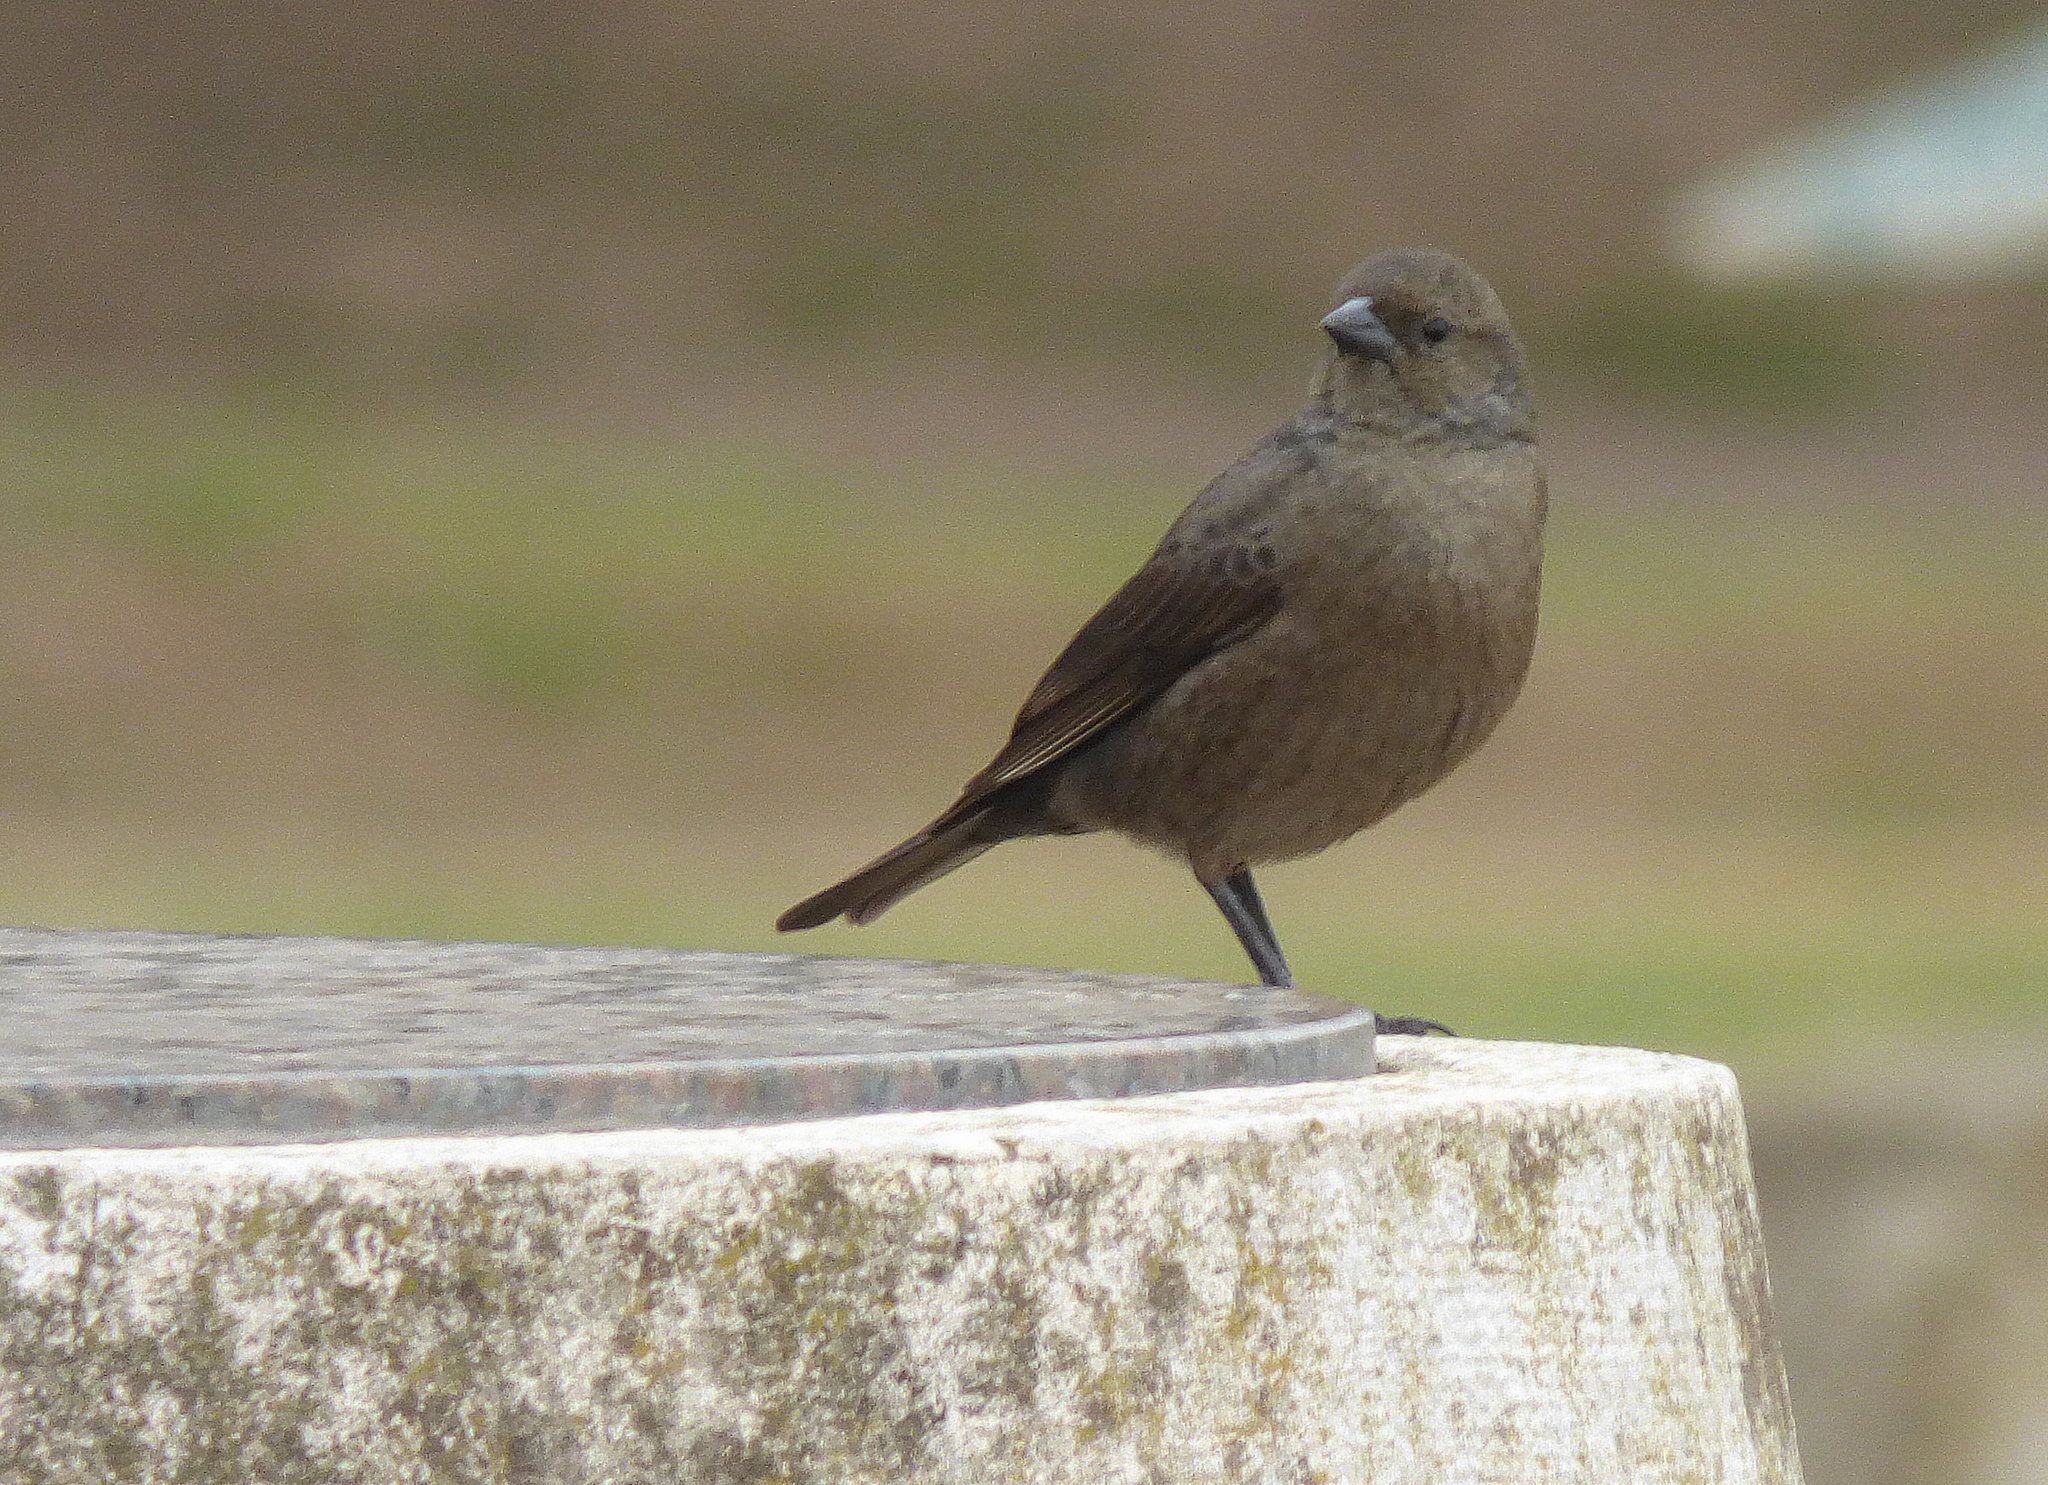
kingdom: Animalia
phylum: Chordata
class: Aves
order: Passeriformes
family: Icteridae
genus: Molothrus
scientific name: Molothrus bonariensis
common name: Shiny cowbird
